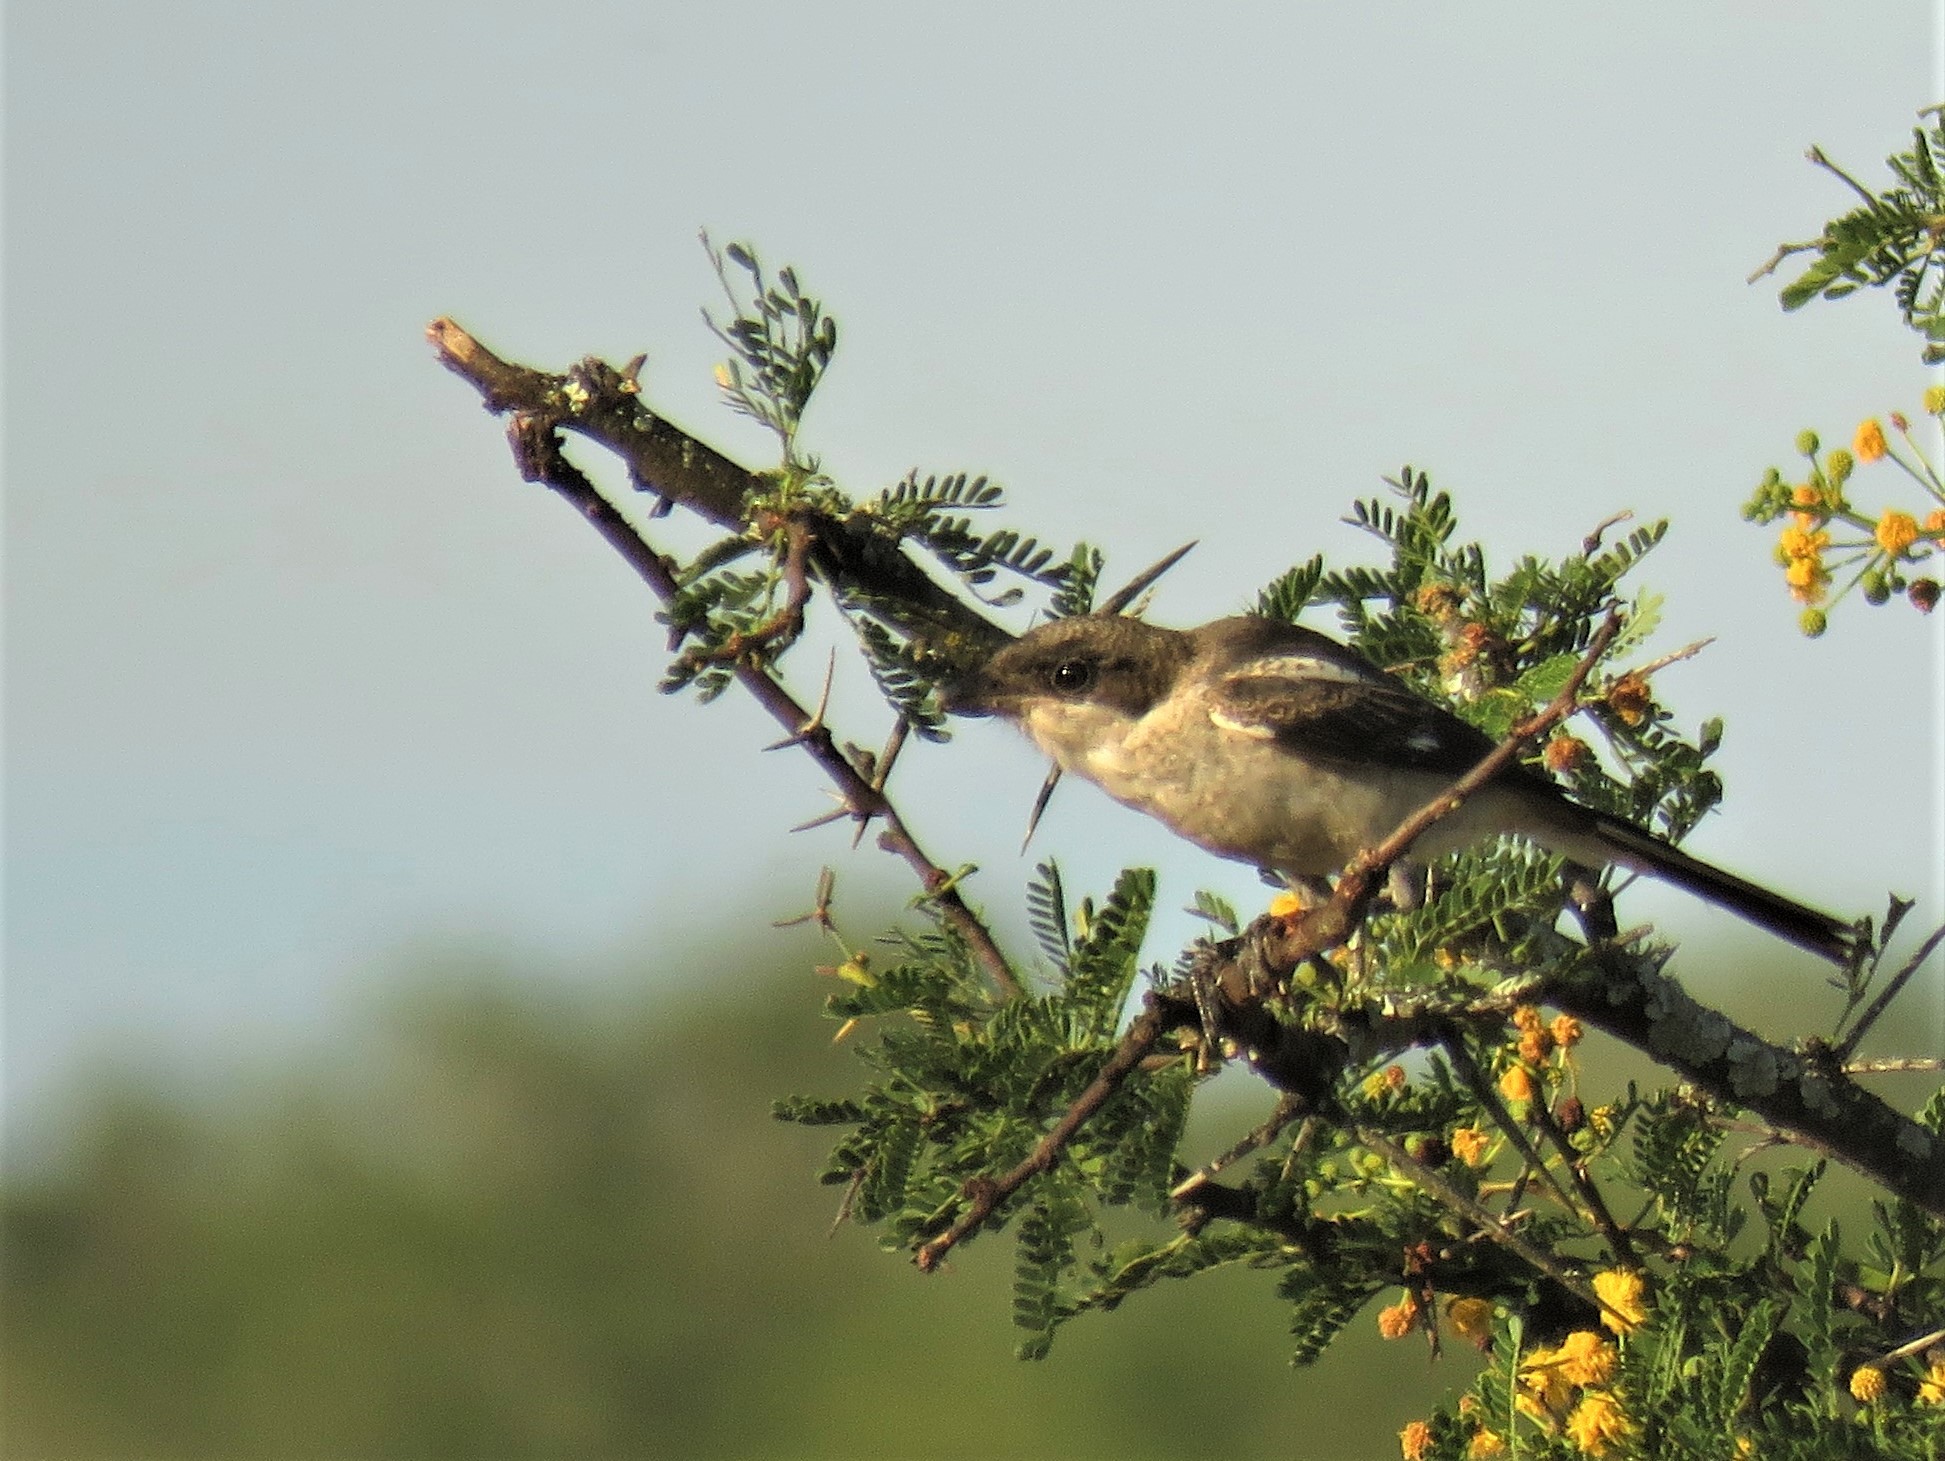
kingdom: Animalia
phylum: Chordata
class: Aves
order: Passeriformes
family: Laniidae
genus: Lanius
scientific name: Lanius collaris
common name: Southern fiscal
